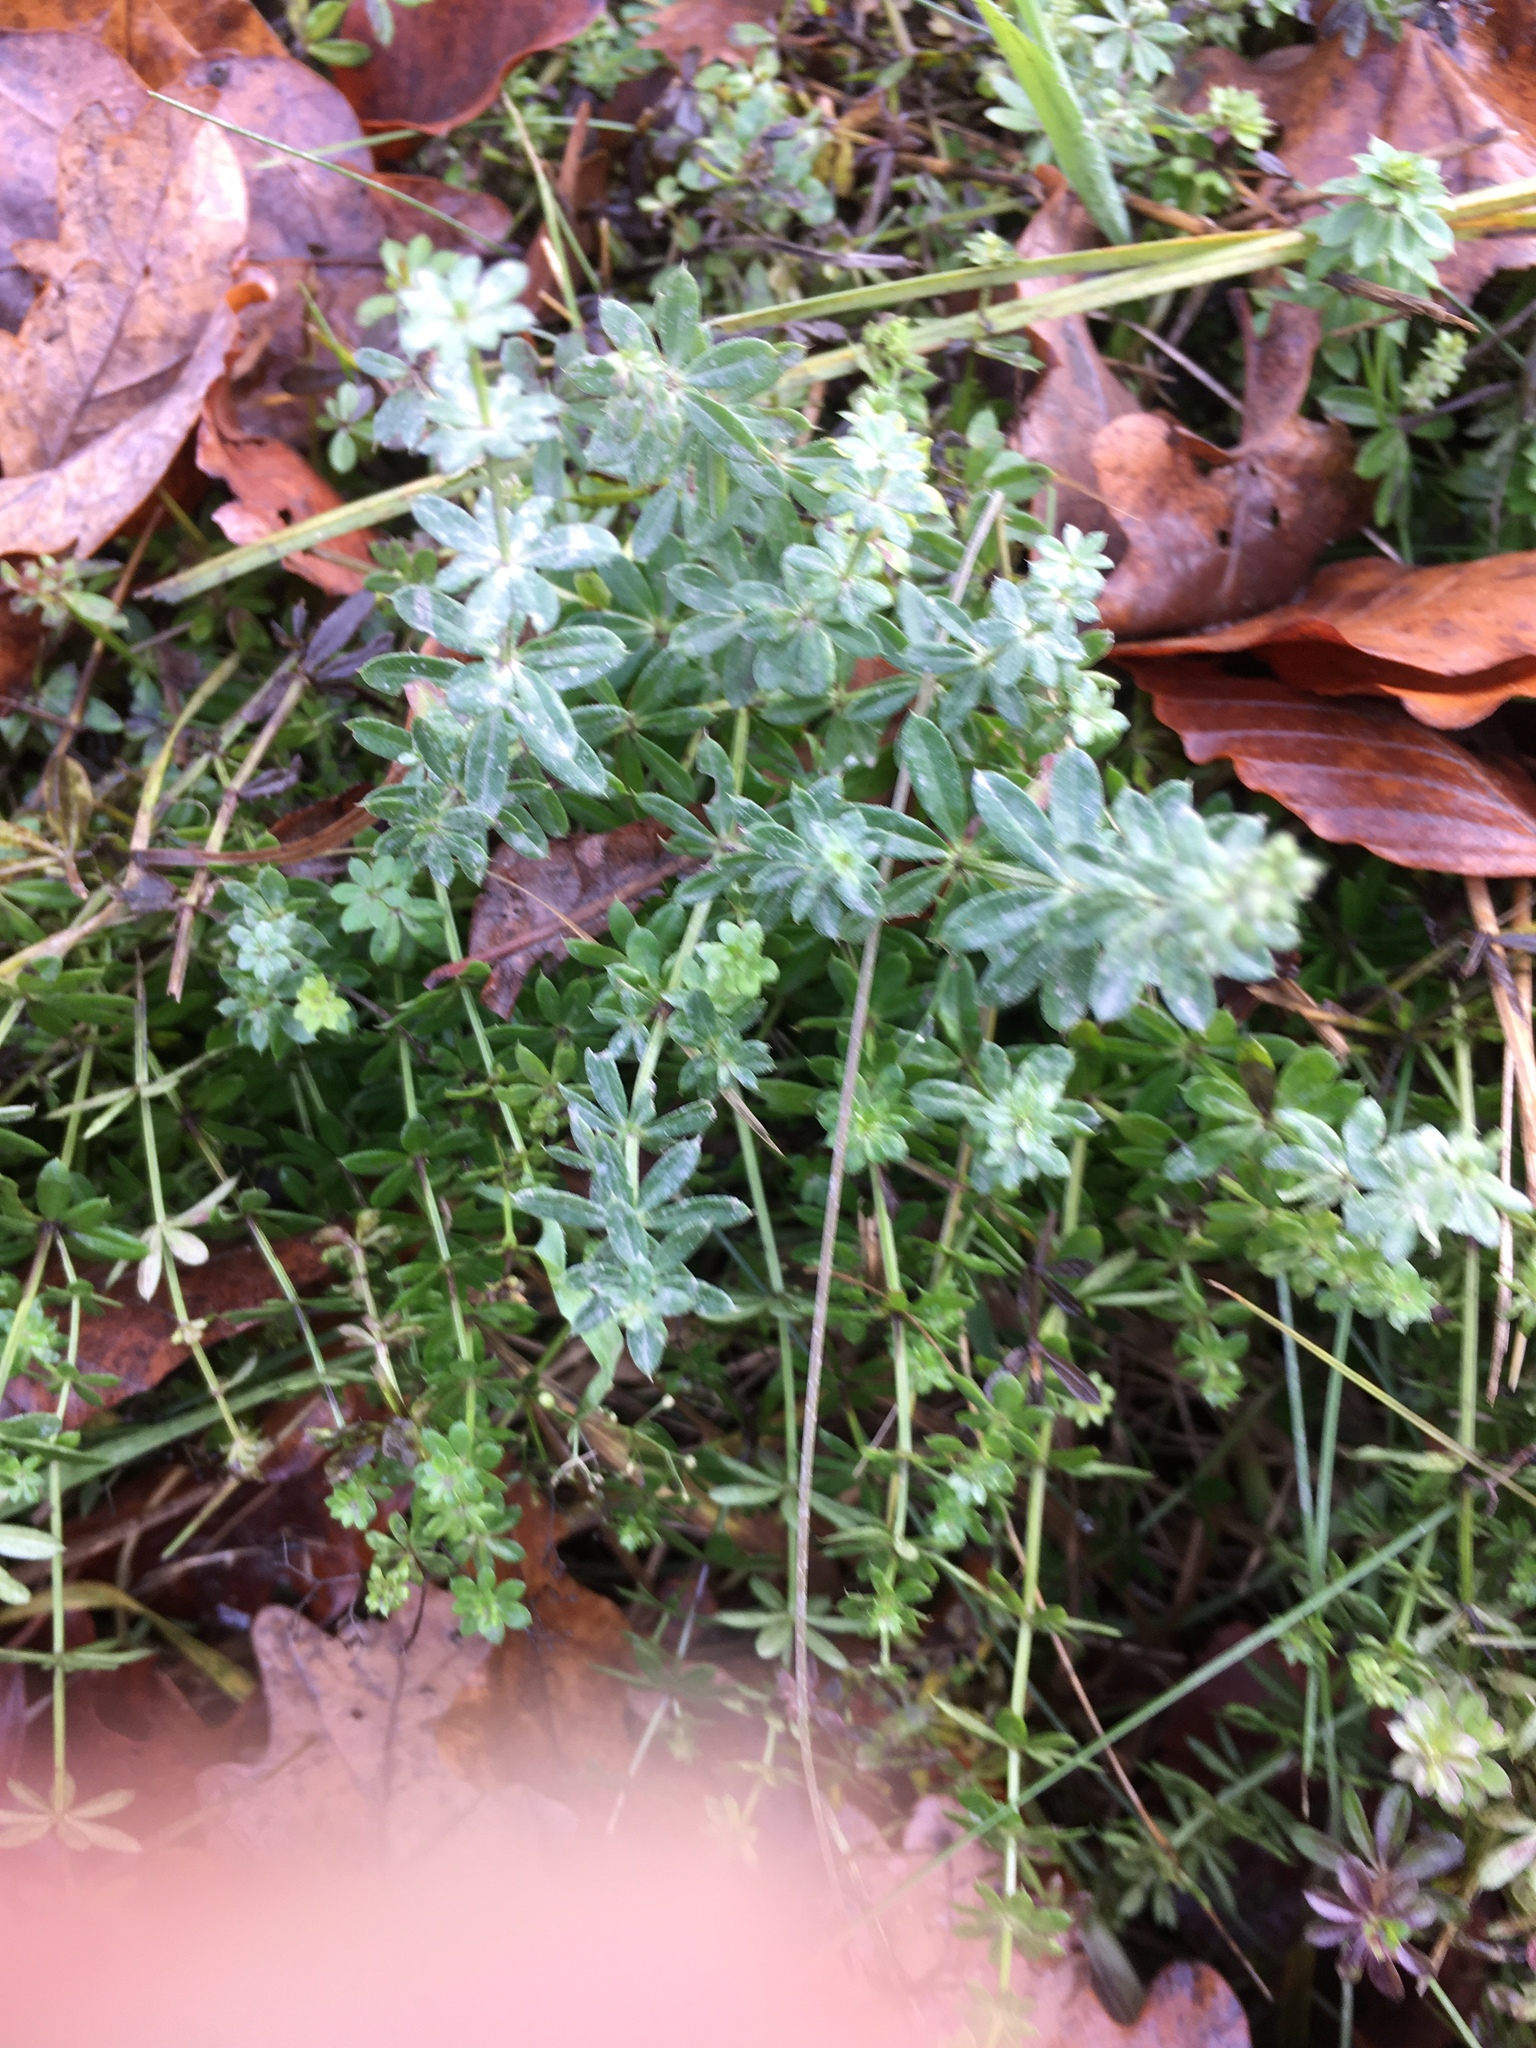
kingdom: Plantae
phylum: Tracheophyta
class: Magnoliopsida
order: Gentianales
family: Rubiaceae
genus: Galium
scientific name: Galium mollugo
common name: Hedge bedstraw
